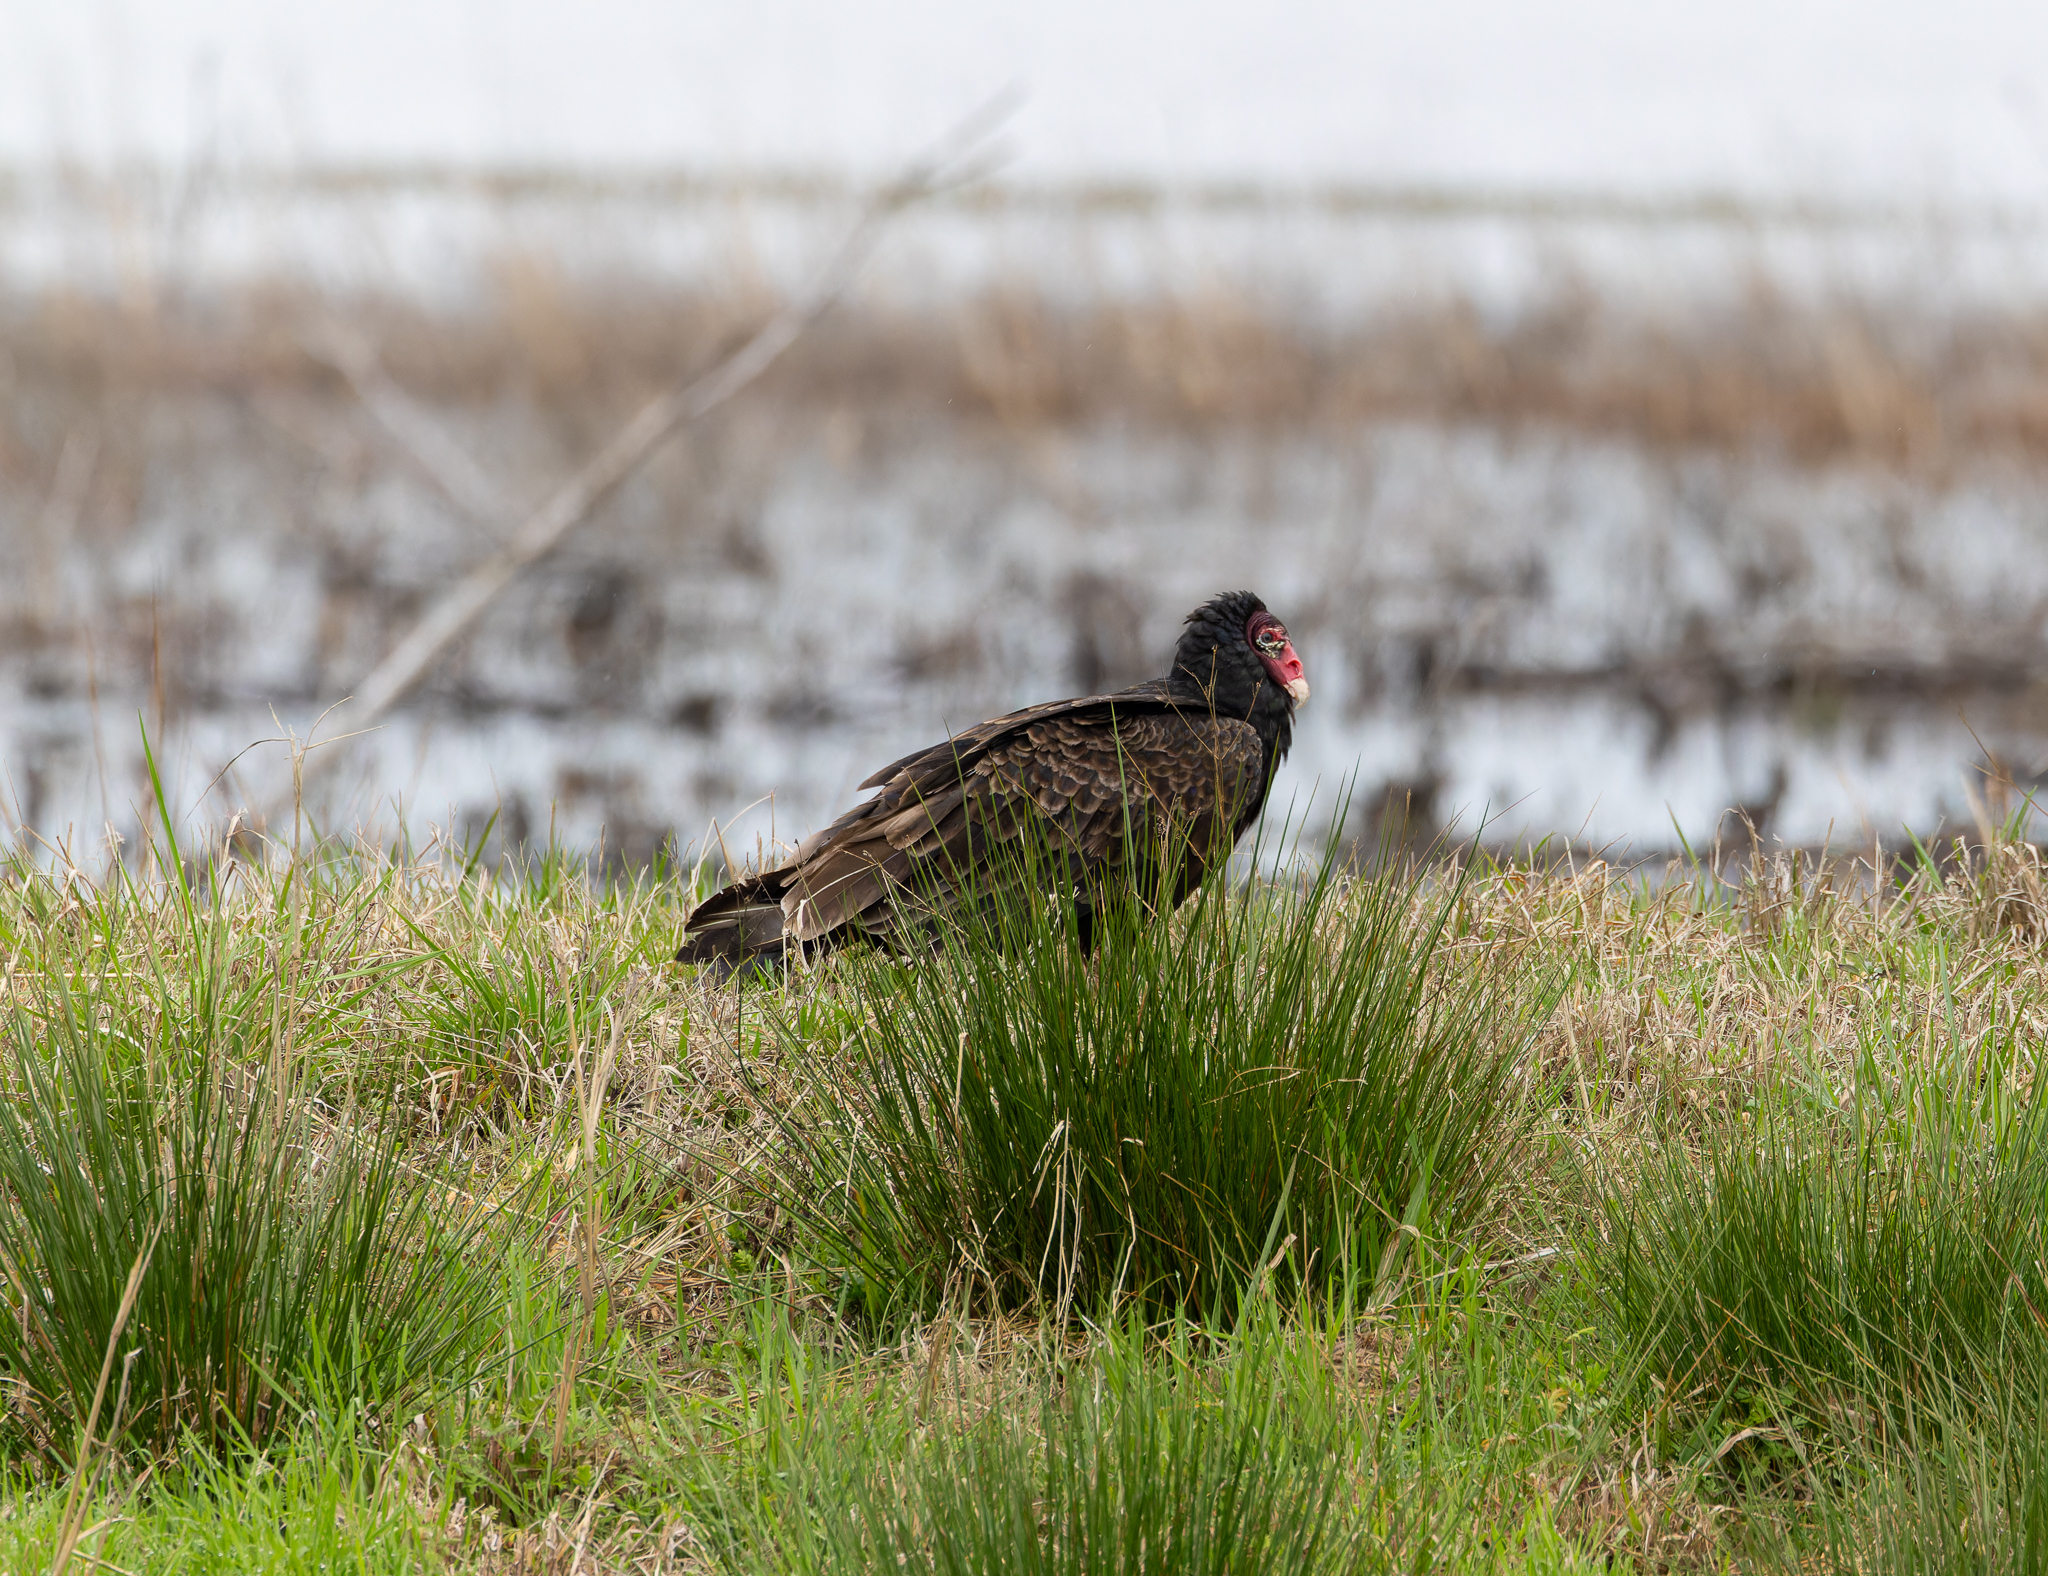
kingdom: Animalia
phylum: Chordata
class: Aves
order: Accipitriformes
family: Cathartidae
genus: Cathartes
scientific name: Cathartes aura
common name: Turkey vulture
